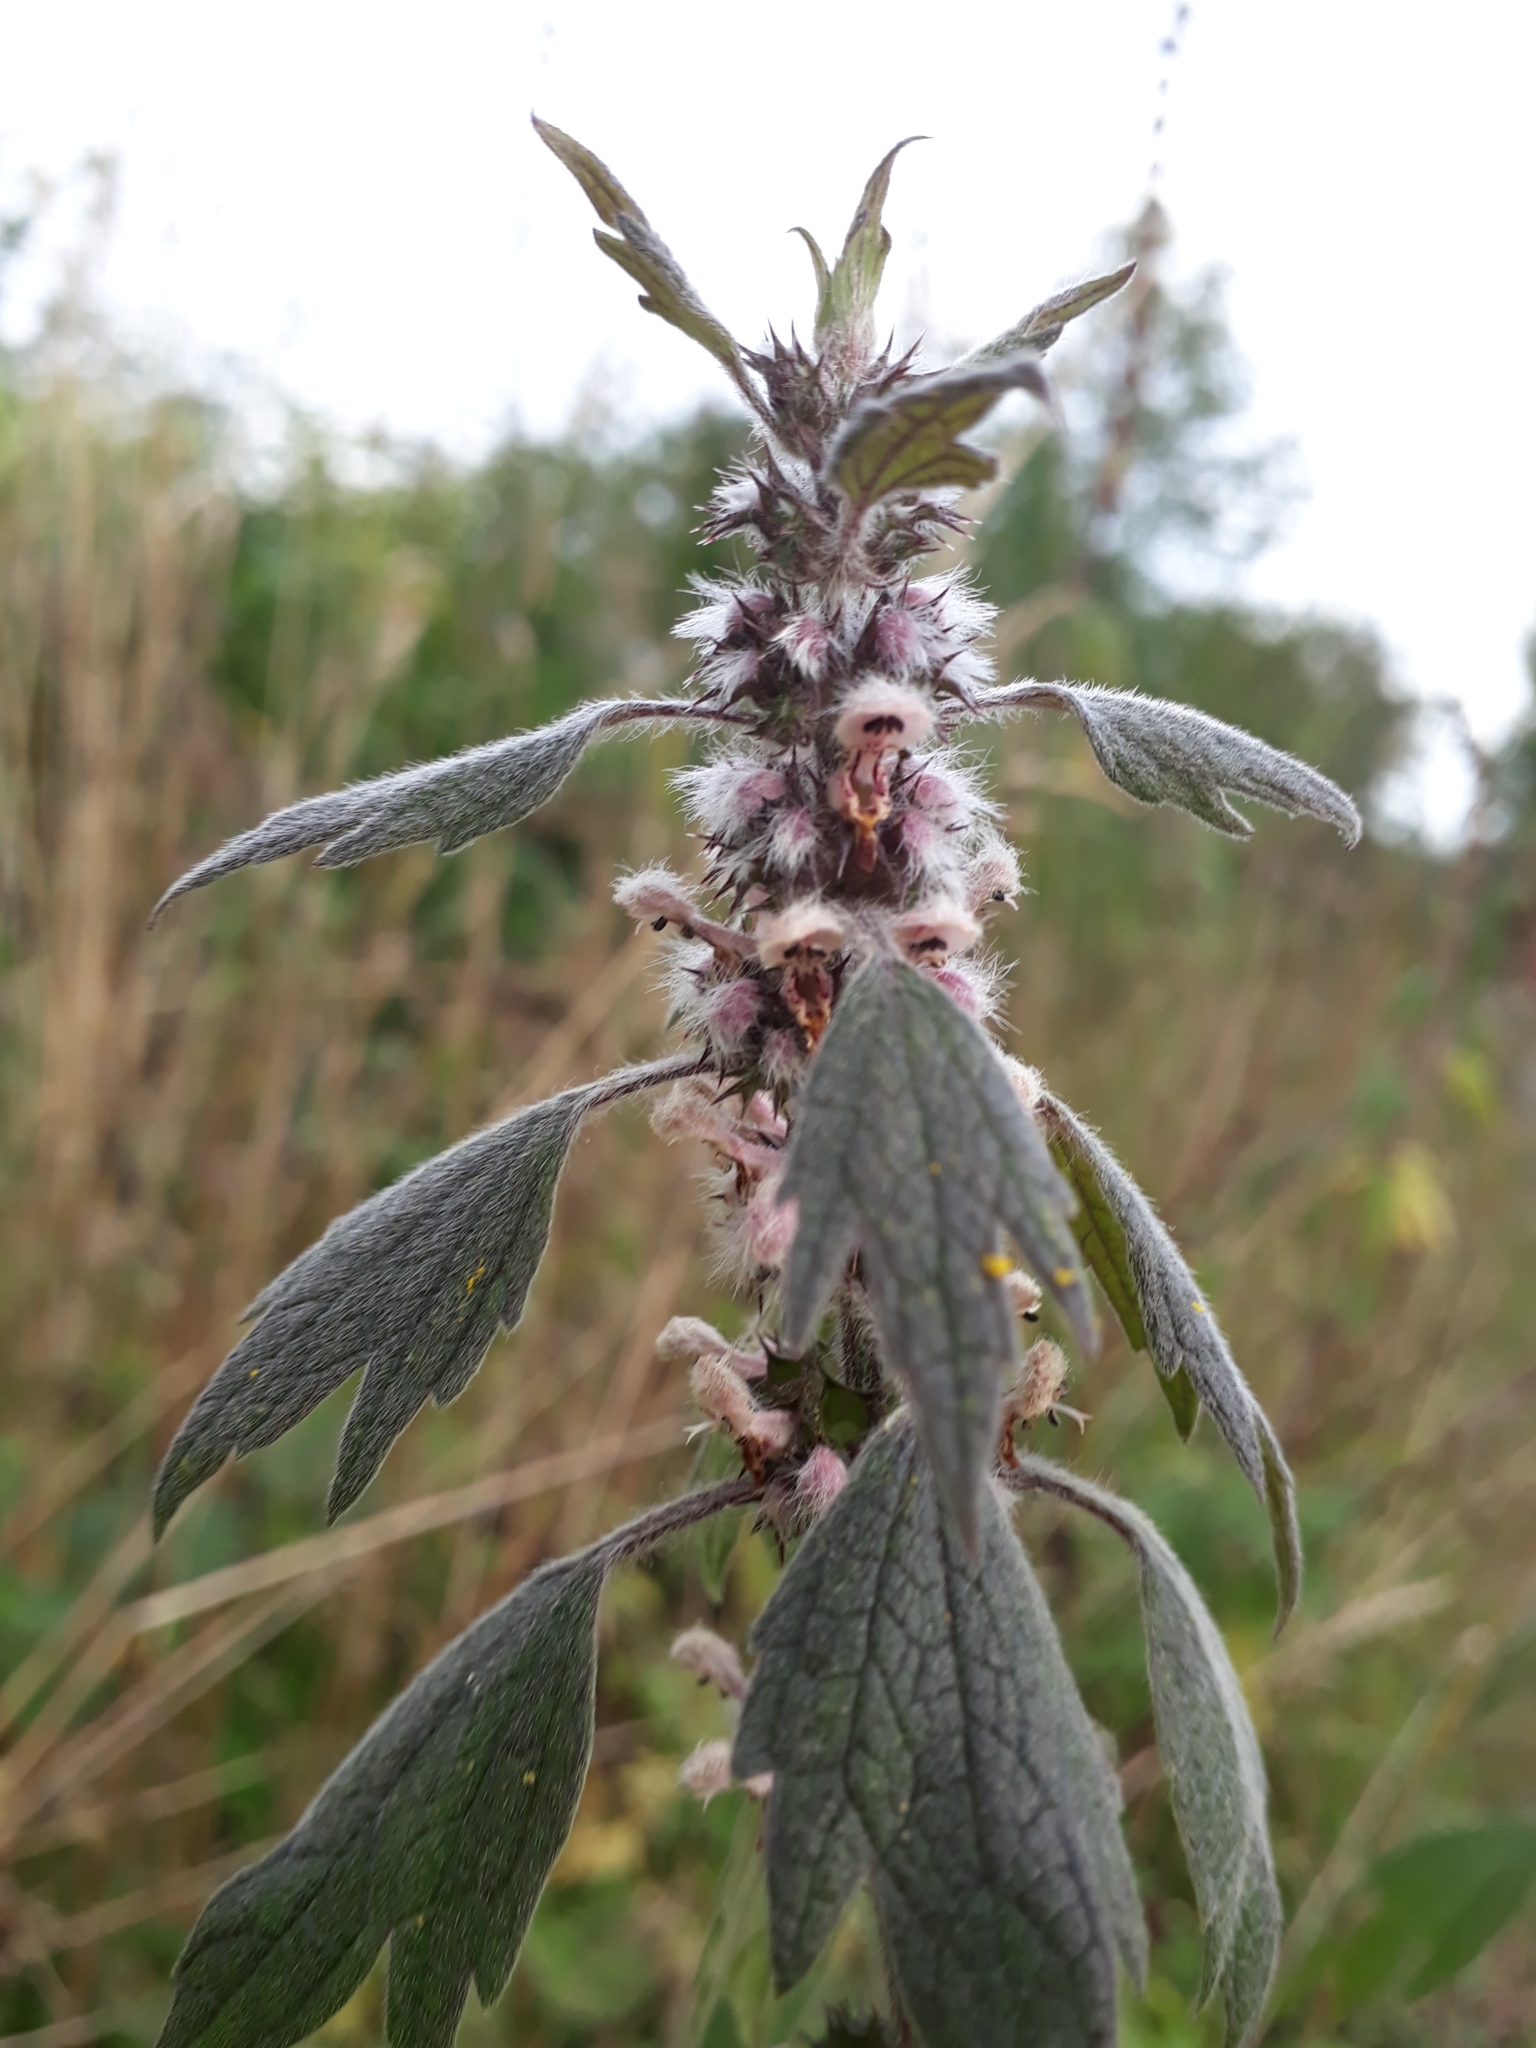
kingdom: Plantae
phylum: Tracheophyta
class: Magnoliopsida
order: Lamiales
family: Lamiaceae
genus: Leonurus
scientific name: Leonurus quinquelobatus
